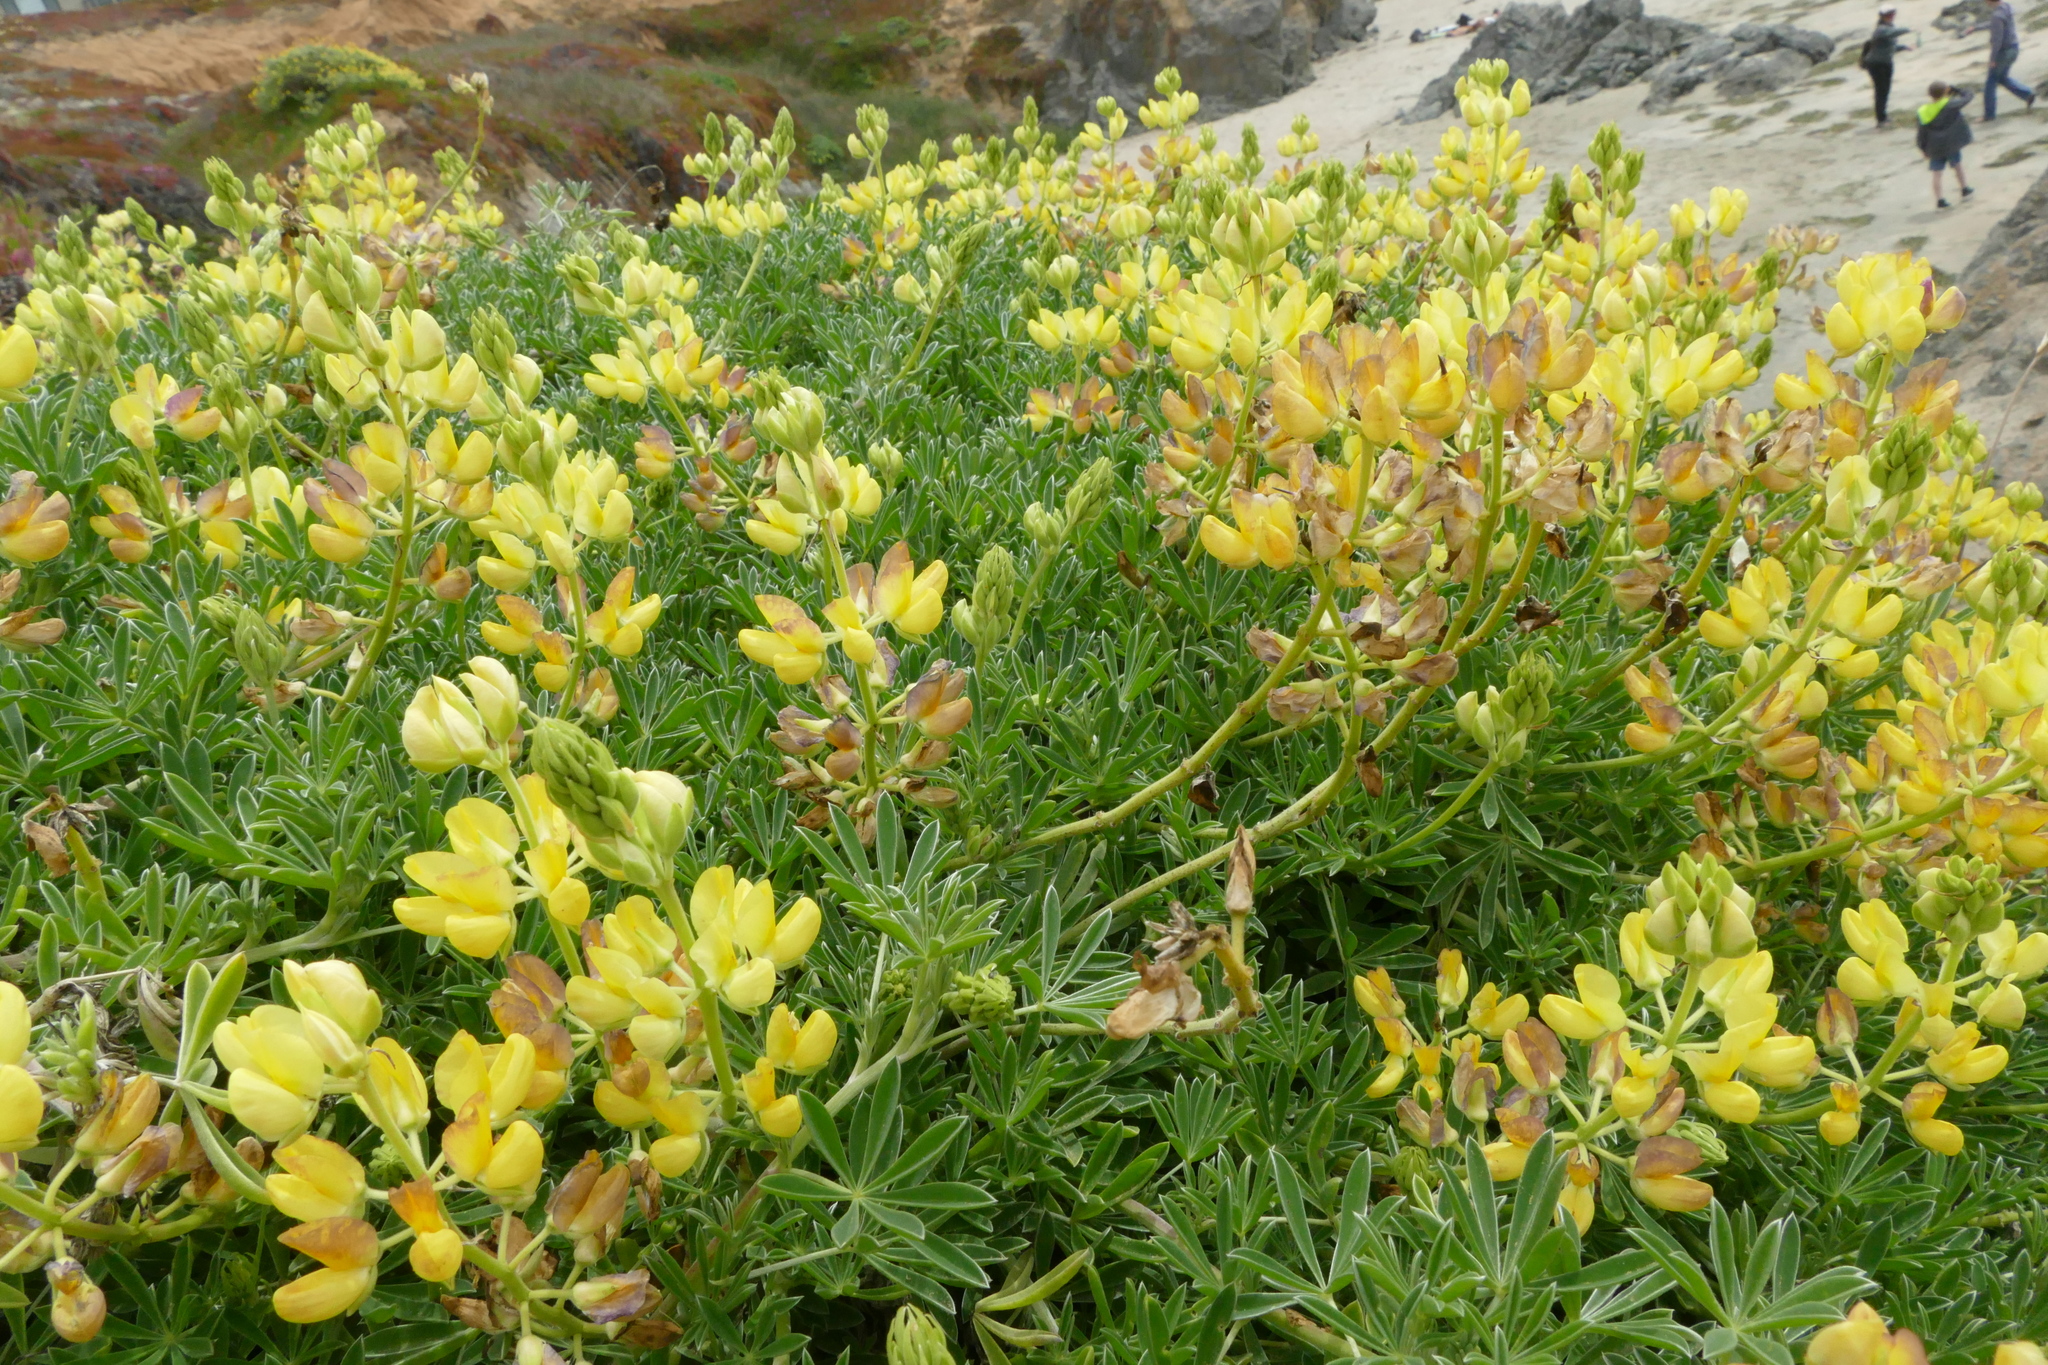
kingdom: Plantae
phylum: Tracheophyta
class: Magnoliopsida
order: Fabales
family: Fabaceae
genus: Lupinus
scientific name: Lupinus arboreus
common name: Yellow bush lupine
